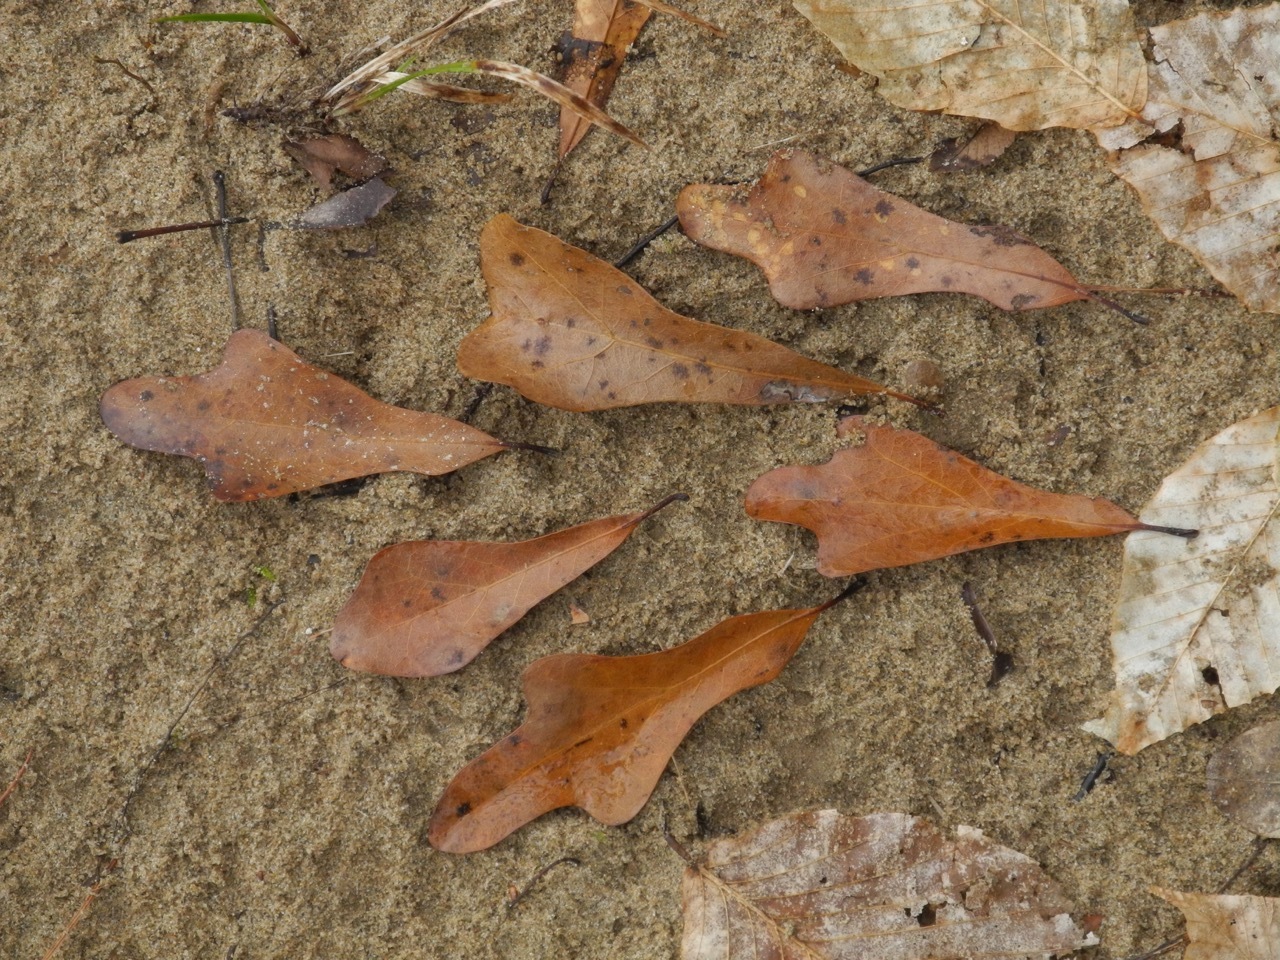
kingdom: Plantae
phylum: Tracheophyta
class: Magnoliopsida
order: Fagales
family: Fagaceae
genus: Quercus
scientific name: Quercus nigra
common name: Water oak
